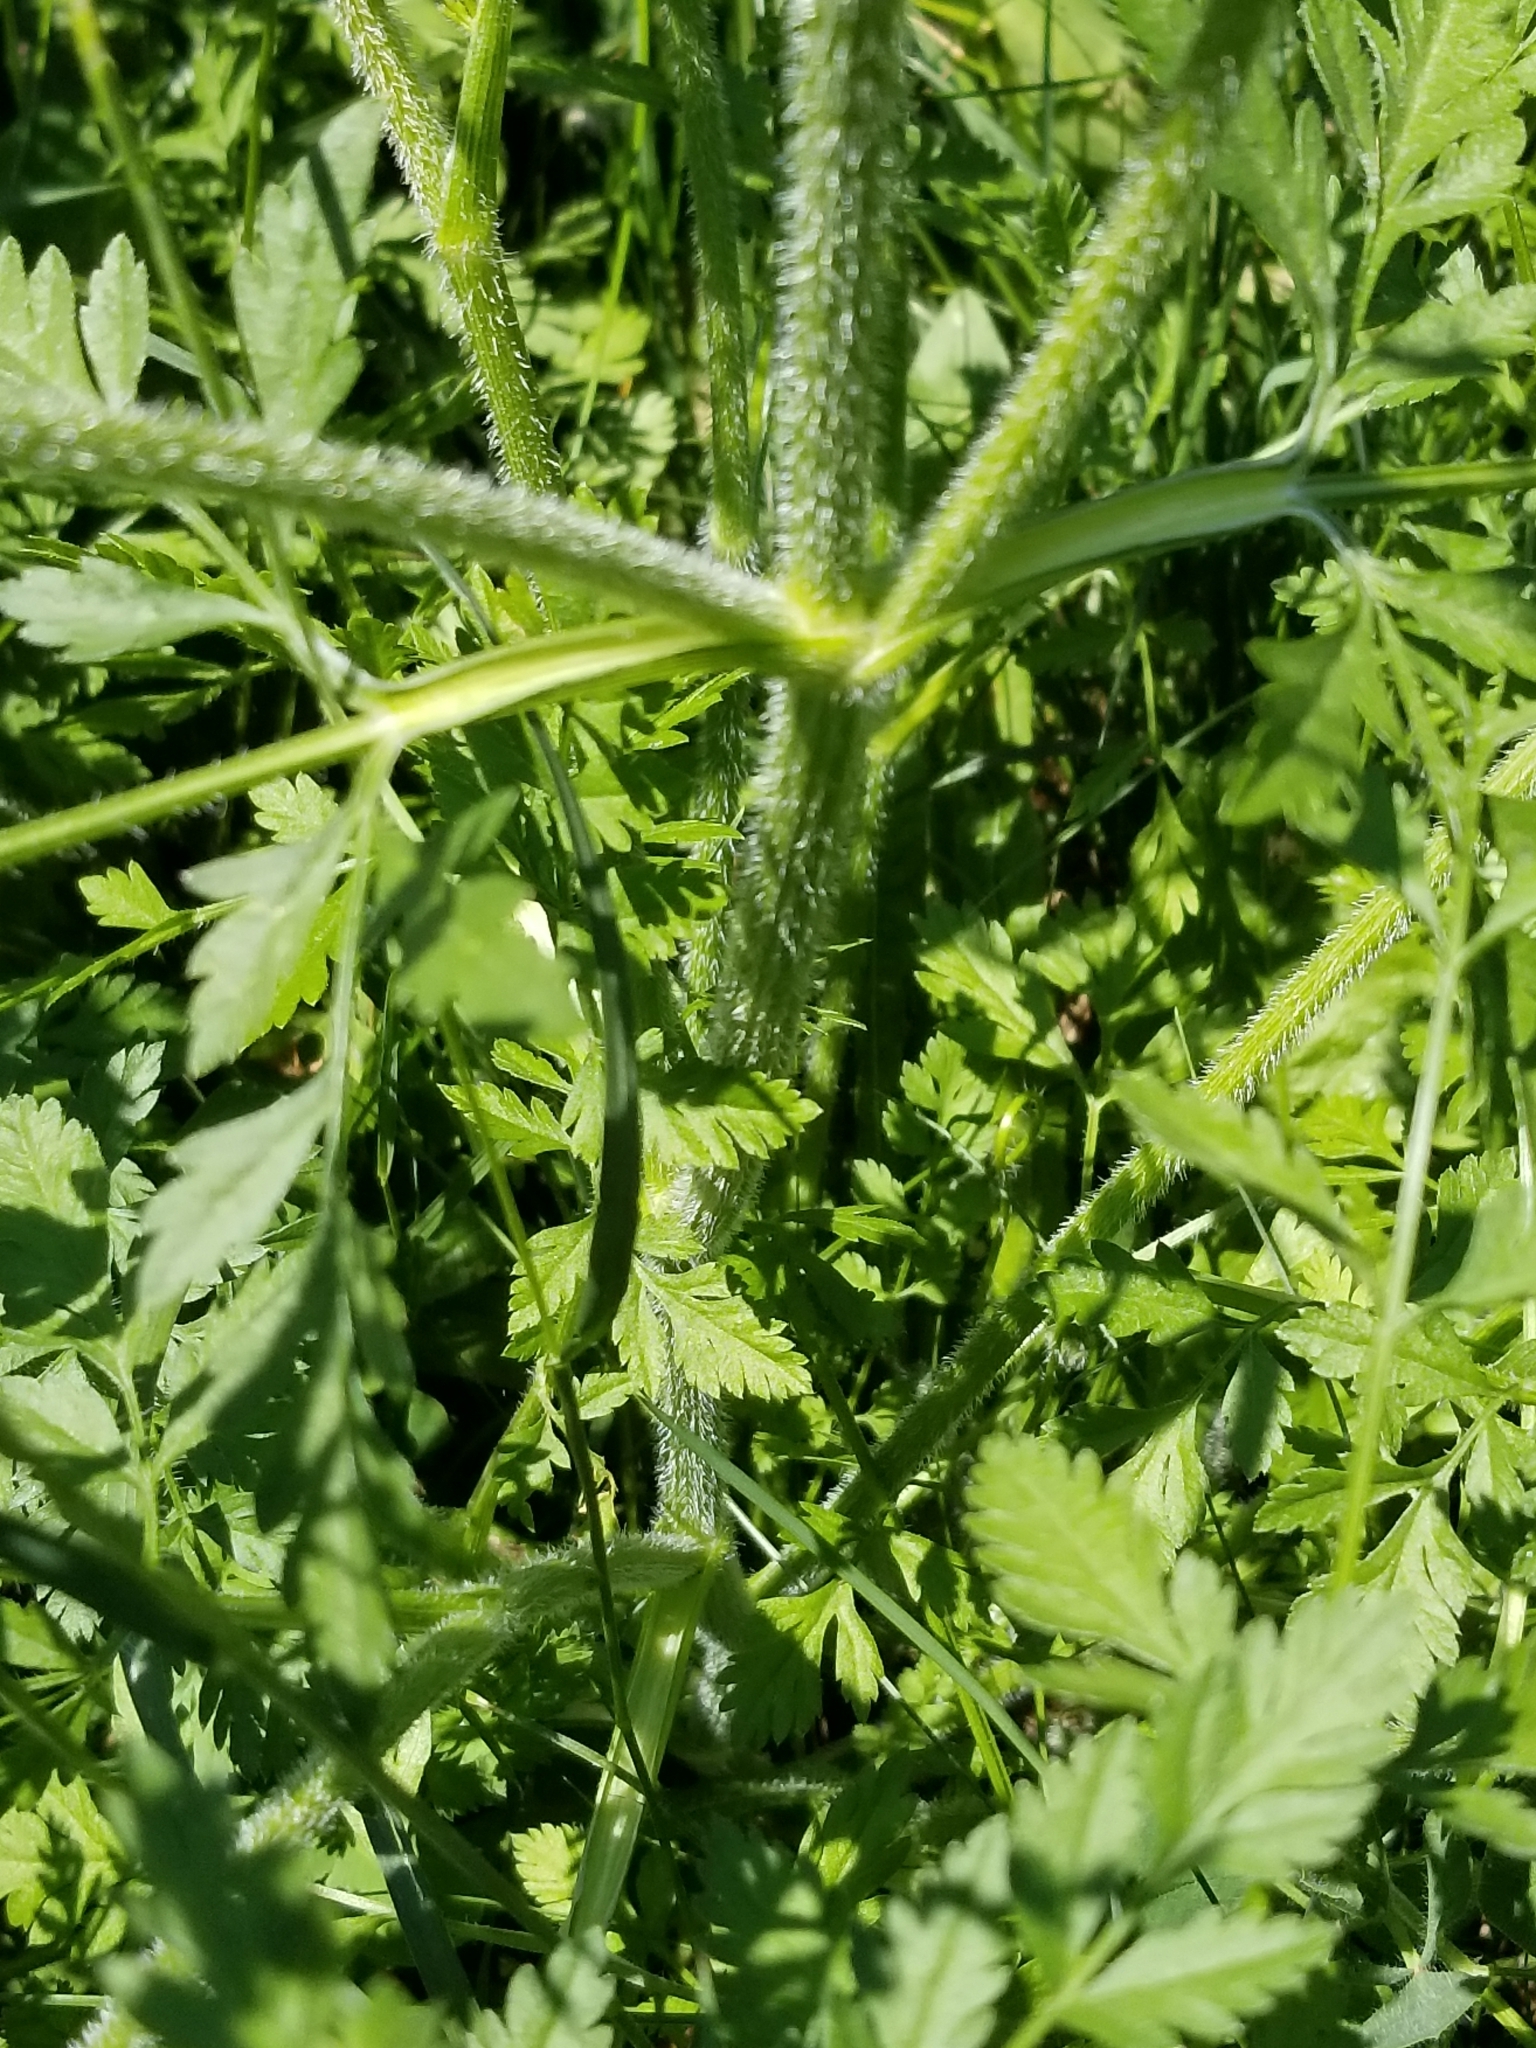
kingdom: Plantae
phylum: Tracheophyta
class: Magnoliopsida
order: Apiales
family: Apiaceae
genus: Daucus
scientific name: Daucus carota
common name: Wild carrot
